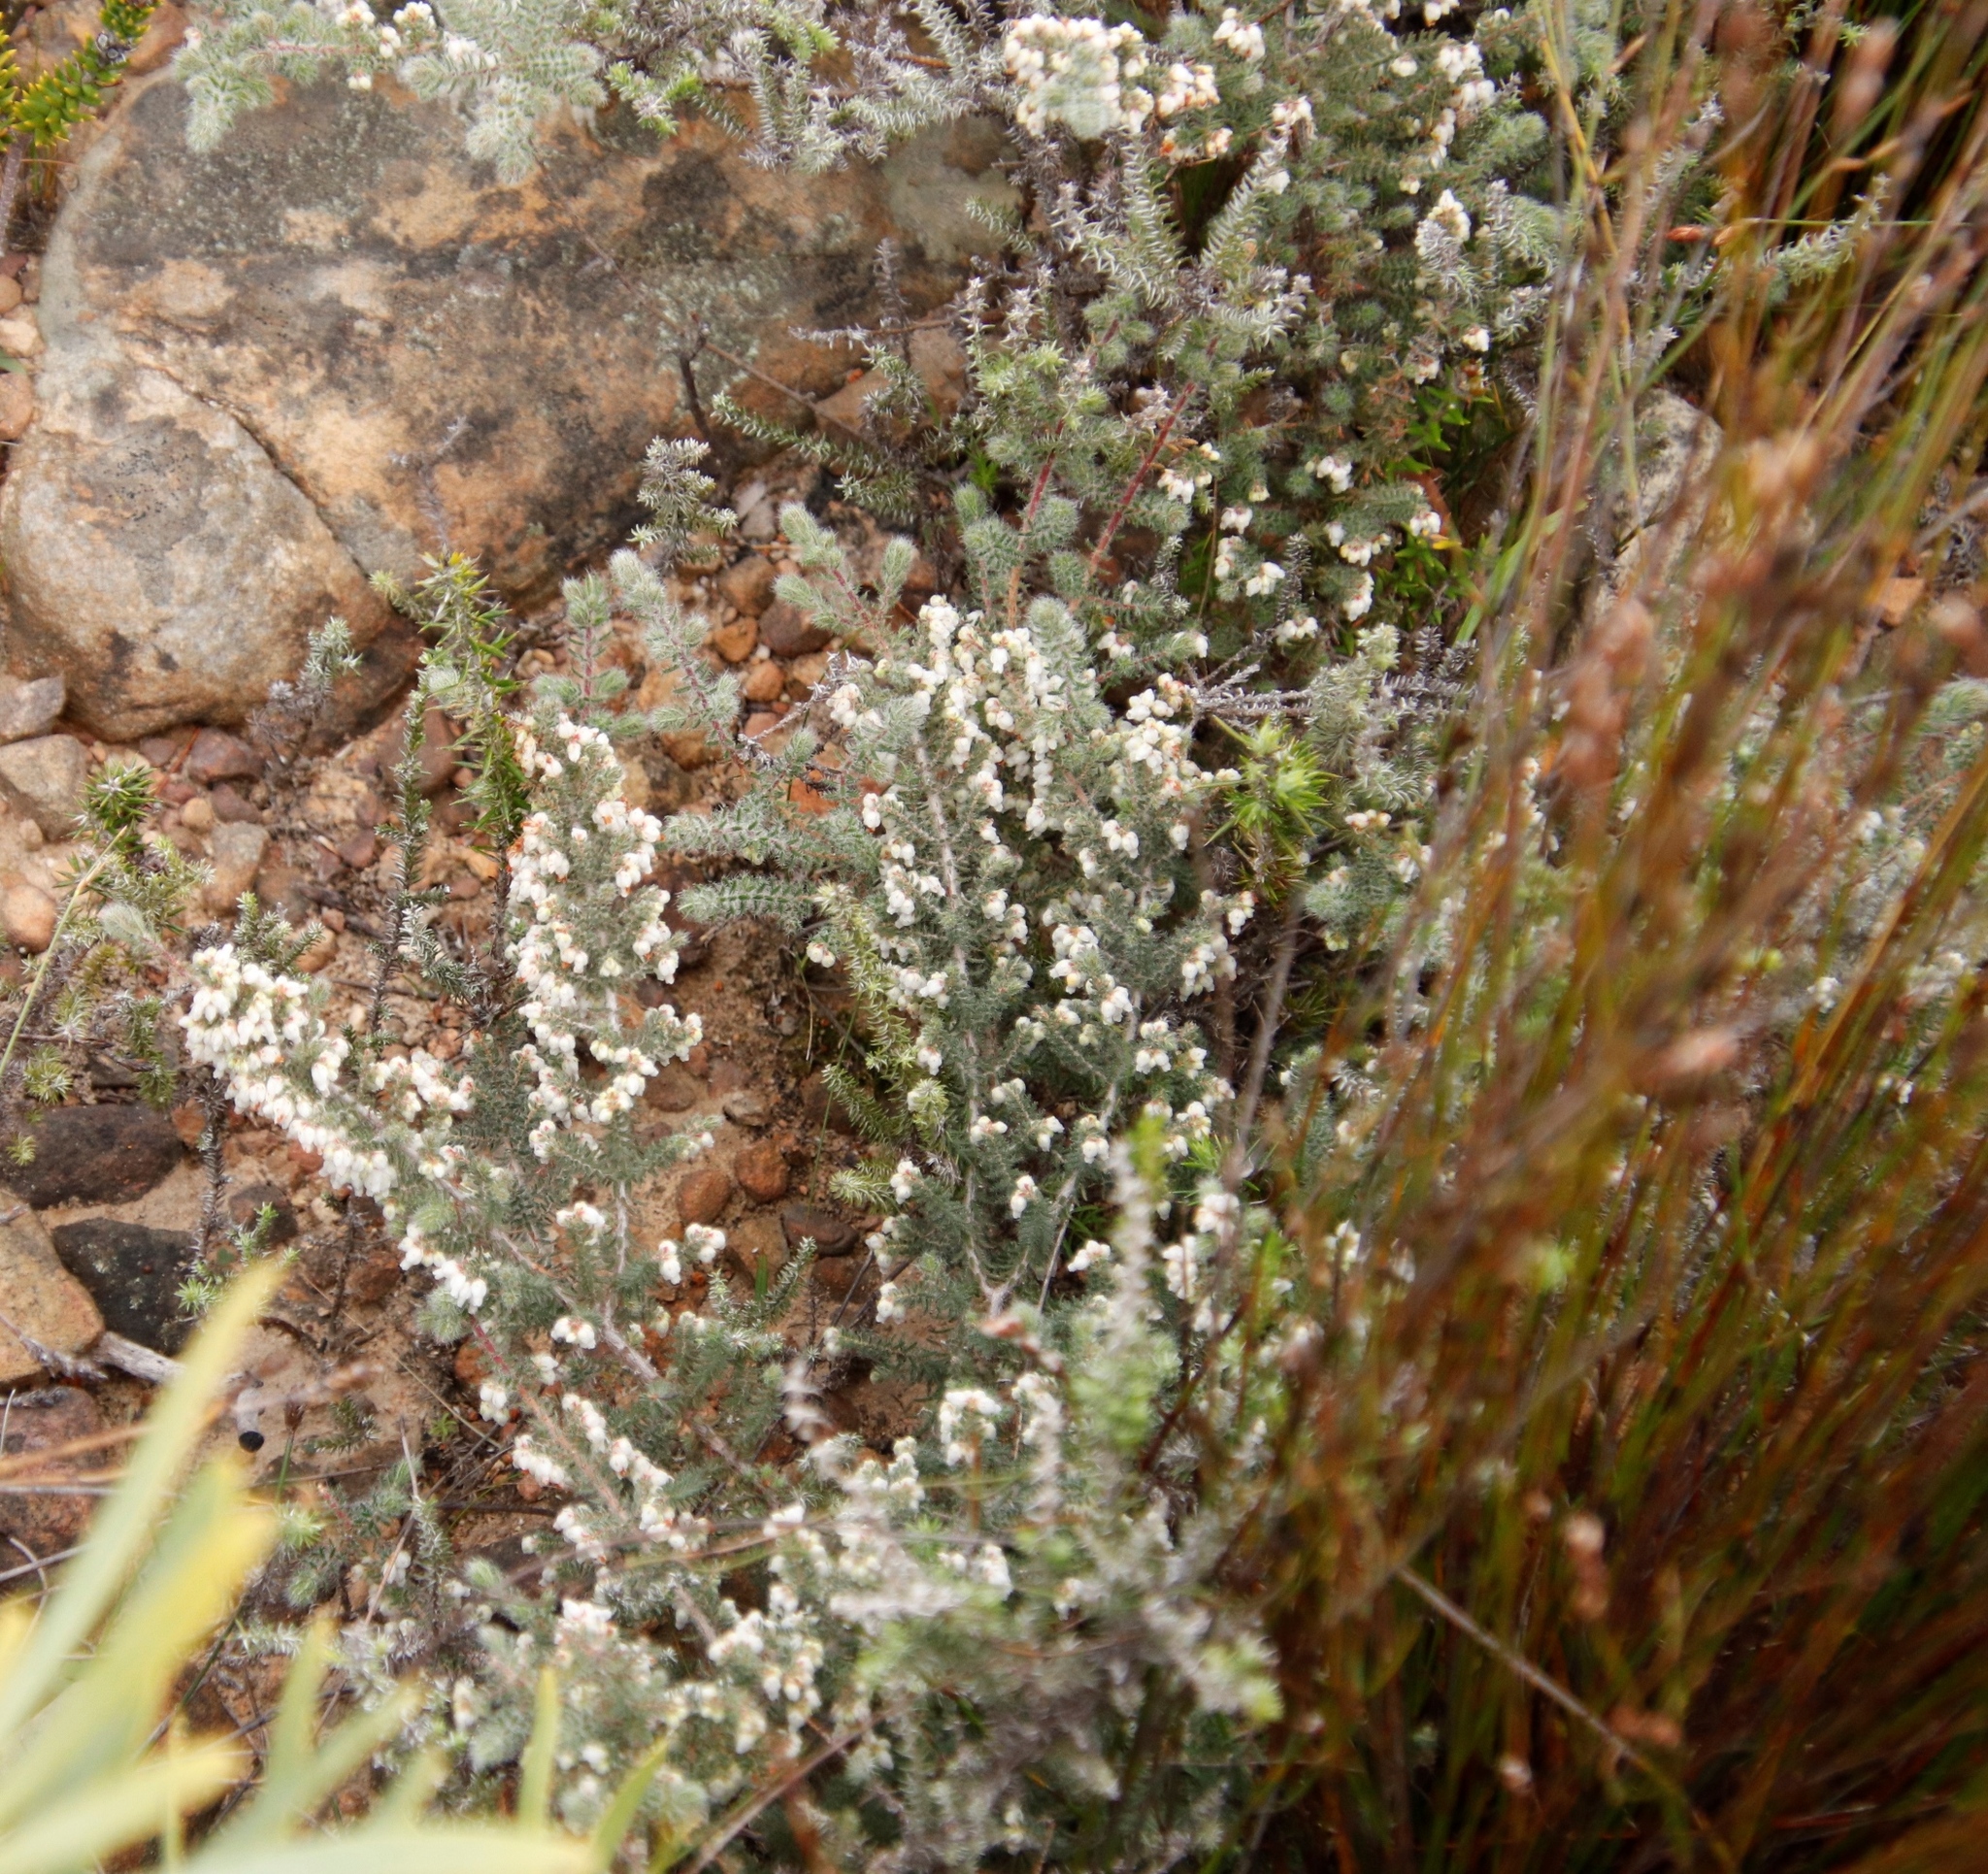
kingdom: Plantae
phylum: Tracheophyta
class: Magnoliopsida
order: Ericales
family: Ericaceae
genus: Erica
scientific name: Erica totta
